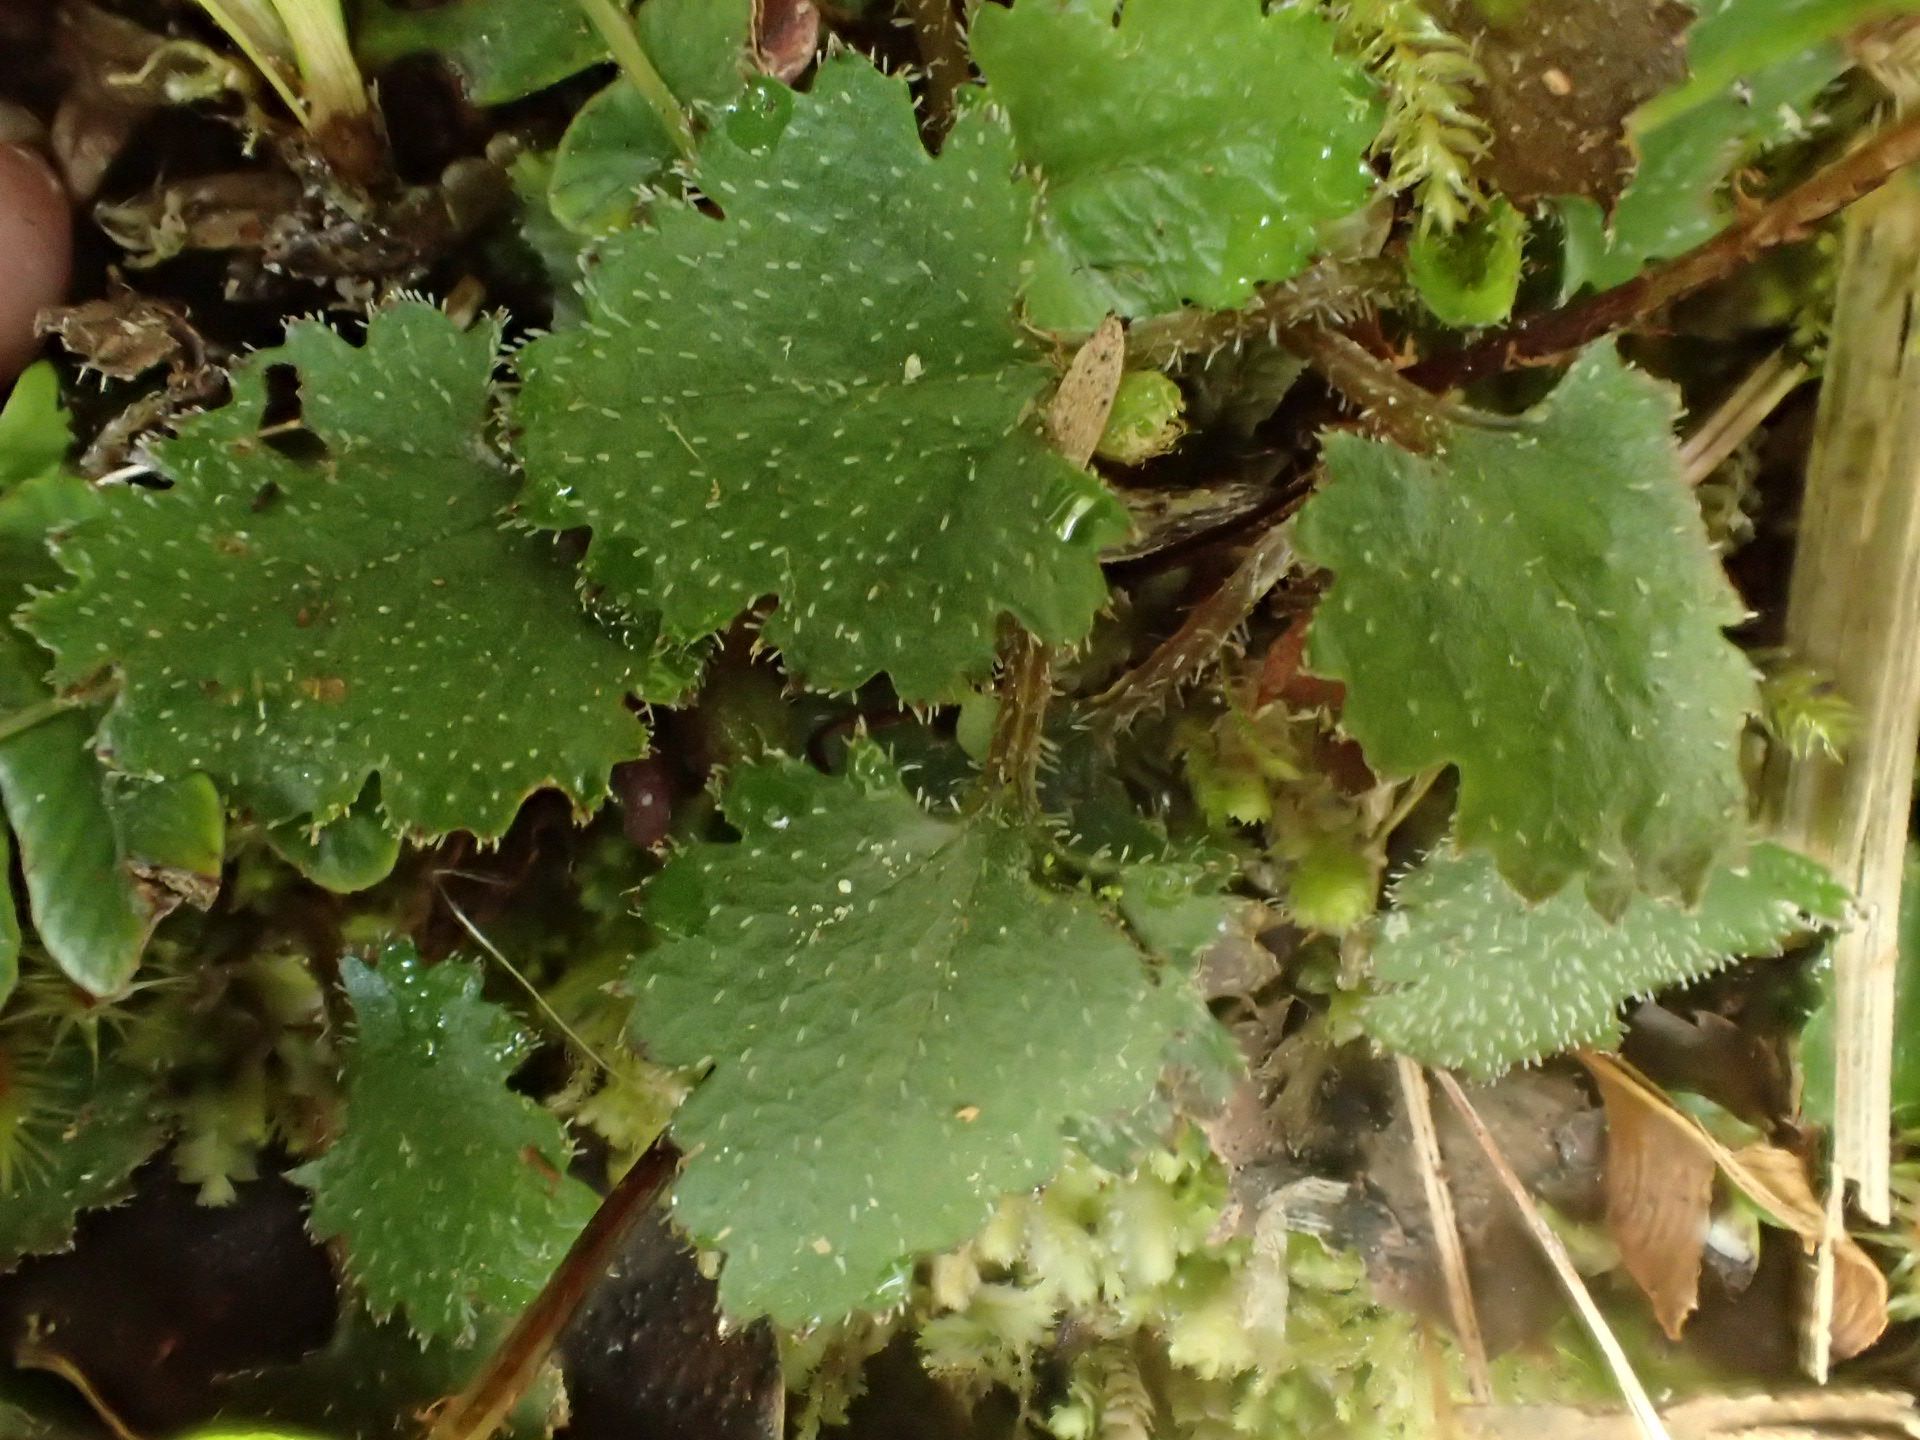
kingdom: Plantae
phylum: Tracheophyta
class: Magnoliopsida
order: Gunnerales
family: Gunneraceae
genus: Gunnera
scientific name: Gunnera monoica
